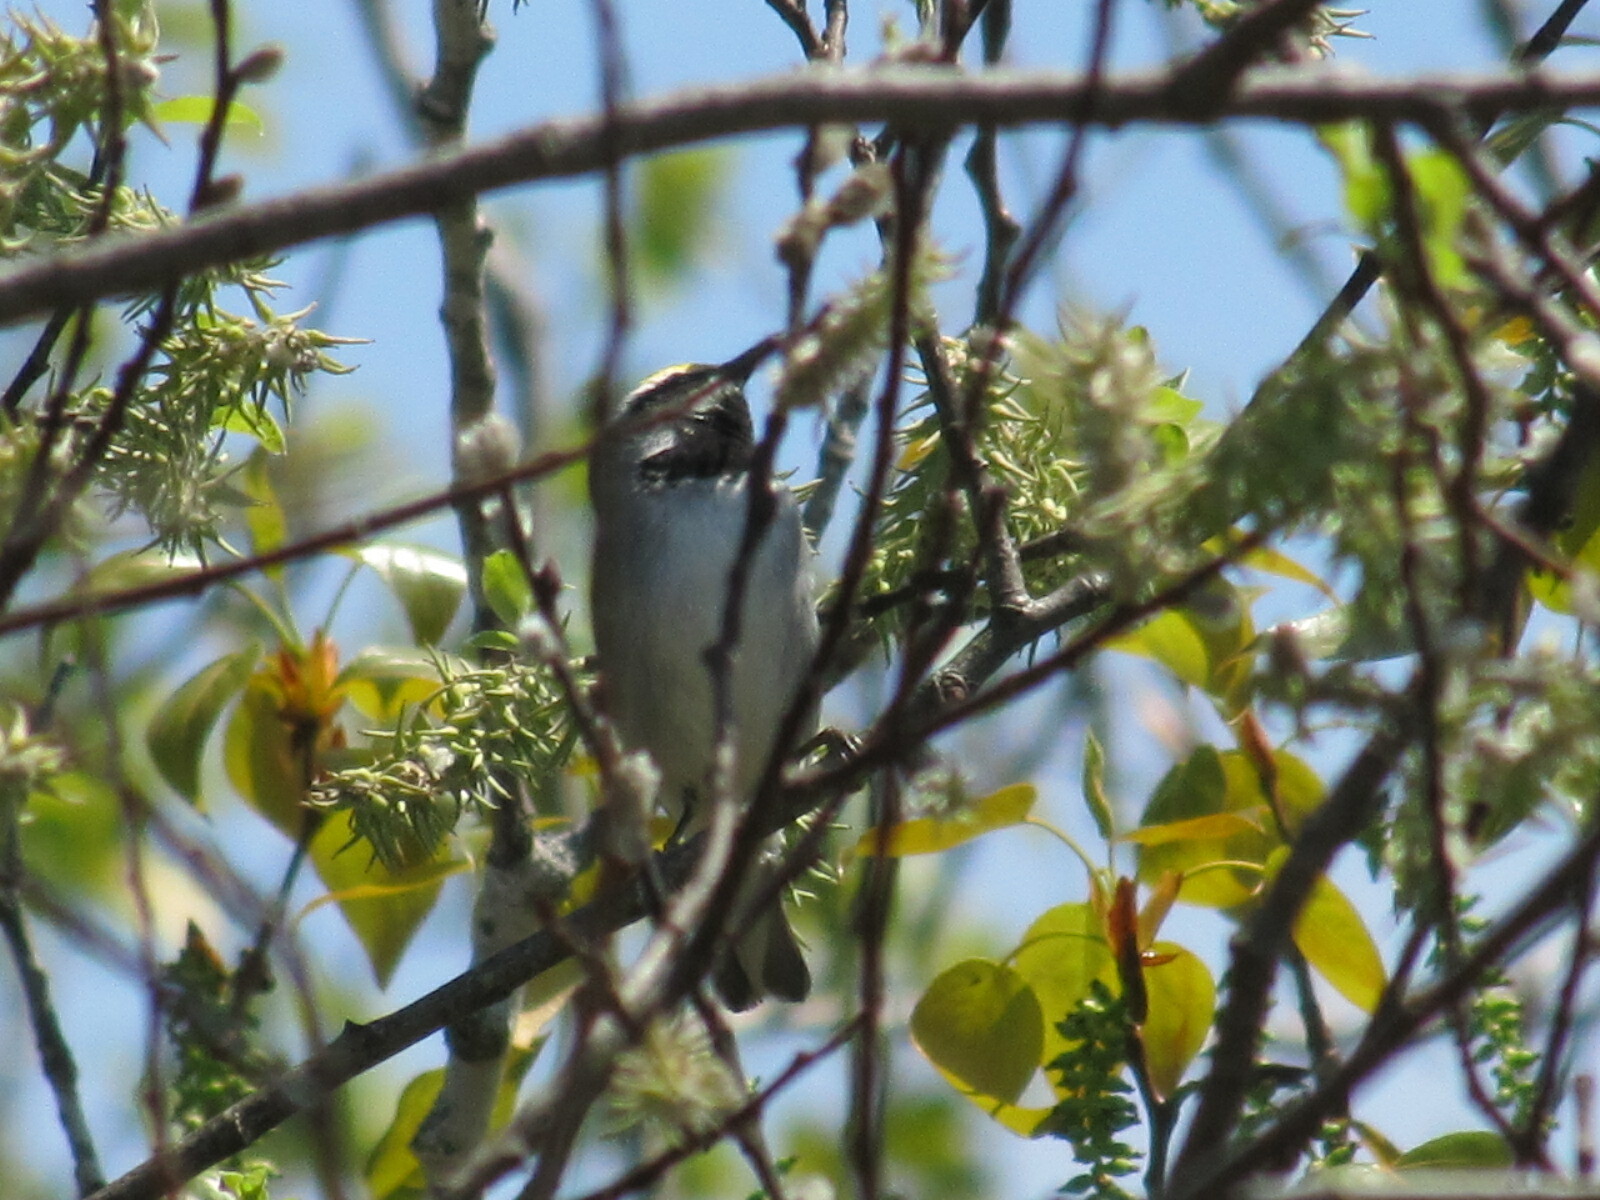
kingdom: Animalia
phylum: Chordata
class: Aves
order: Passeriformes
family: Parulidae
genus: Vermivora
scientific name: Vermivora chrysoptera
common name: Golden-winged warbler
